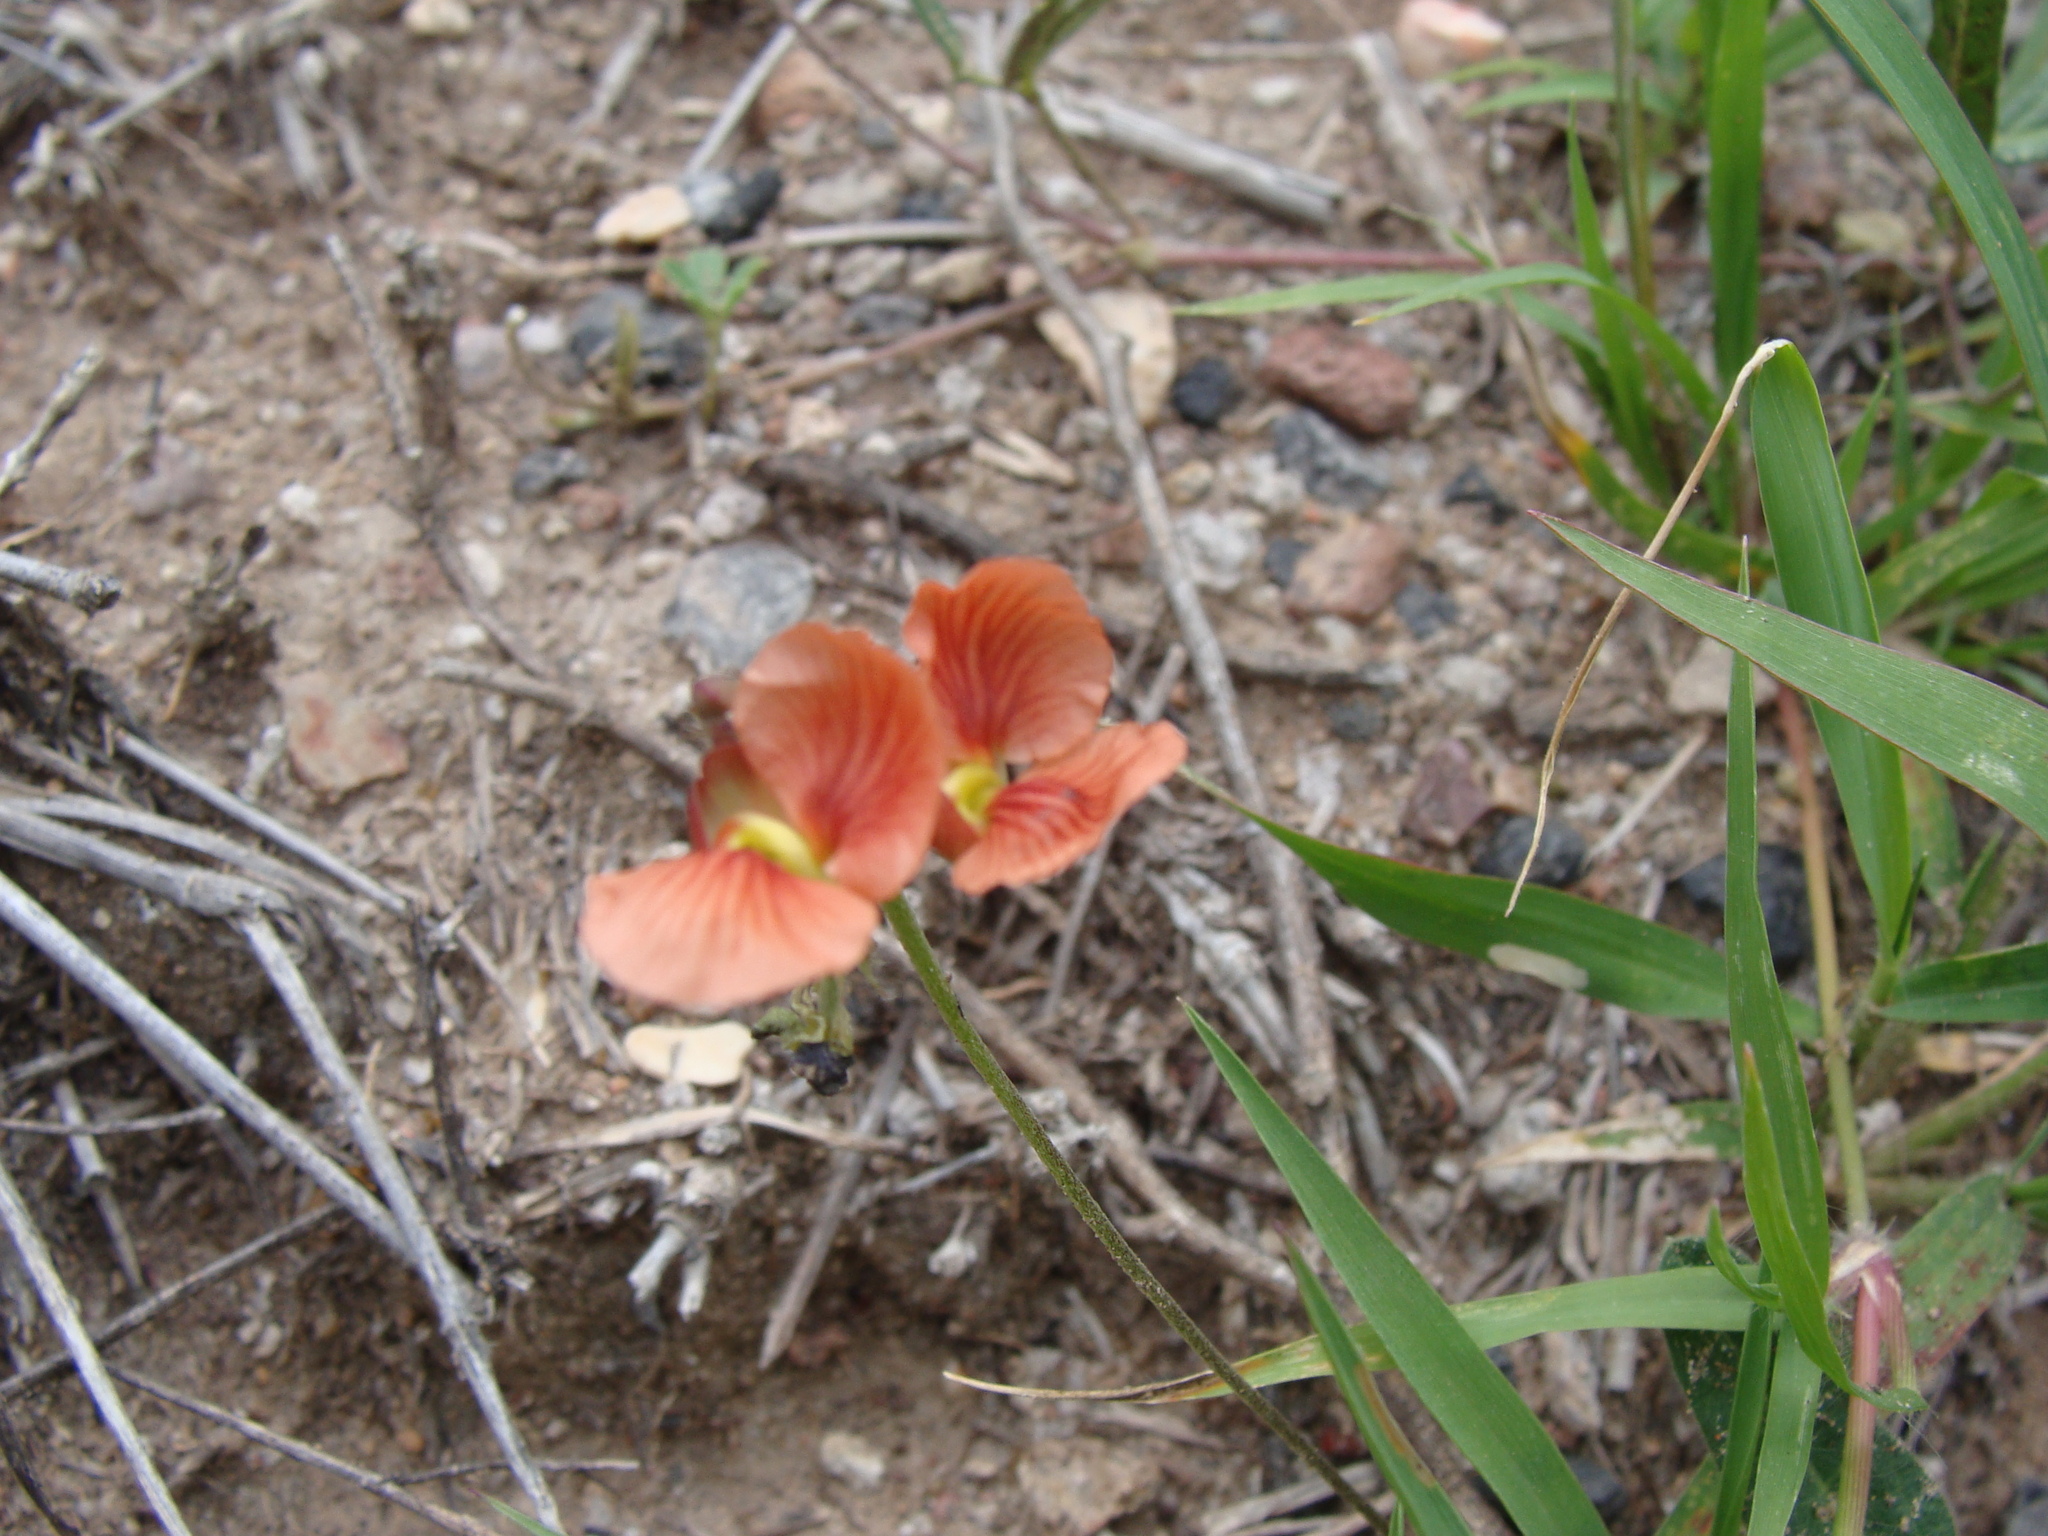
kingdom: Plantae
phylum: Tracheophyta
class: Magnoliopsida
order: Fabales
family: Fabaceae
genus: Macroptilium
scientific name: Macroptilium gibbosifolium
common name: Variableleaf bushbean
